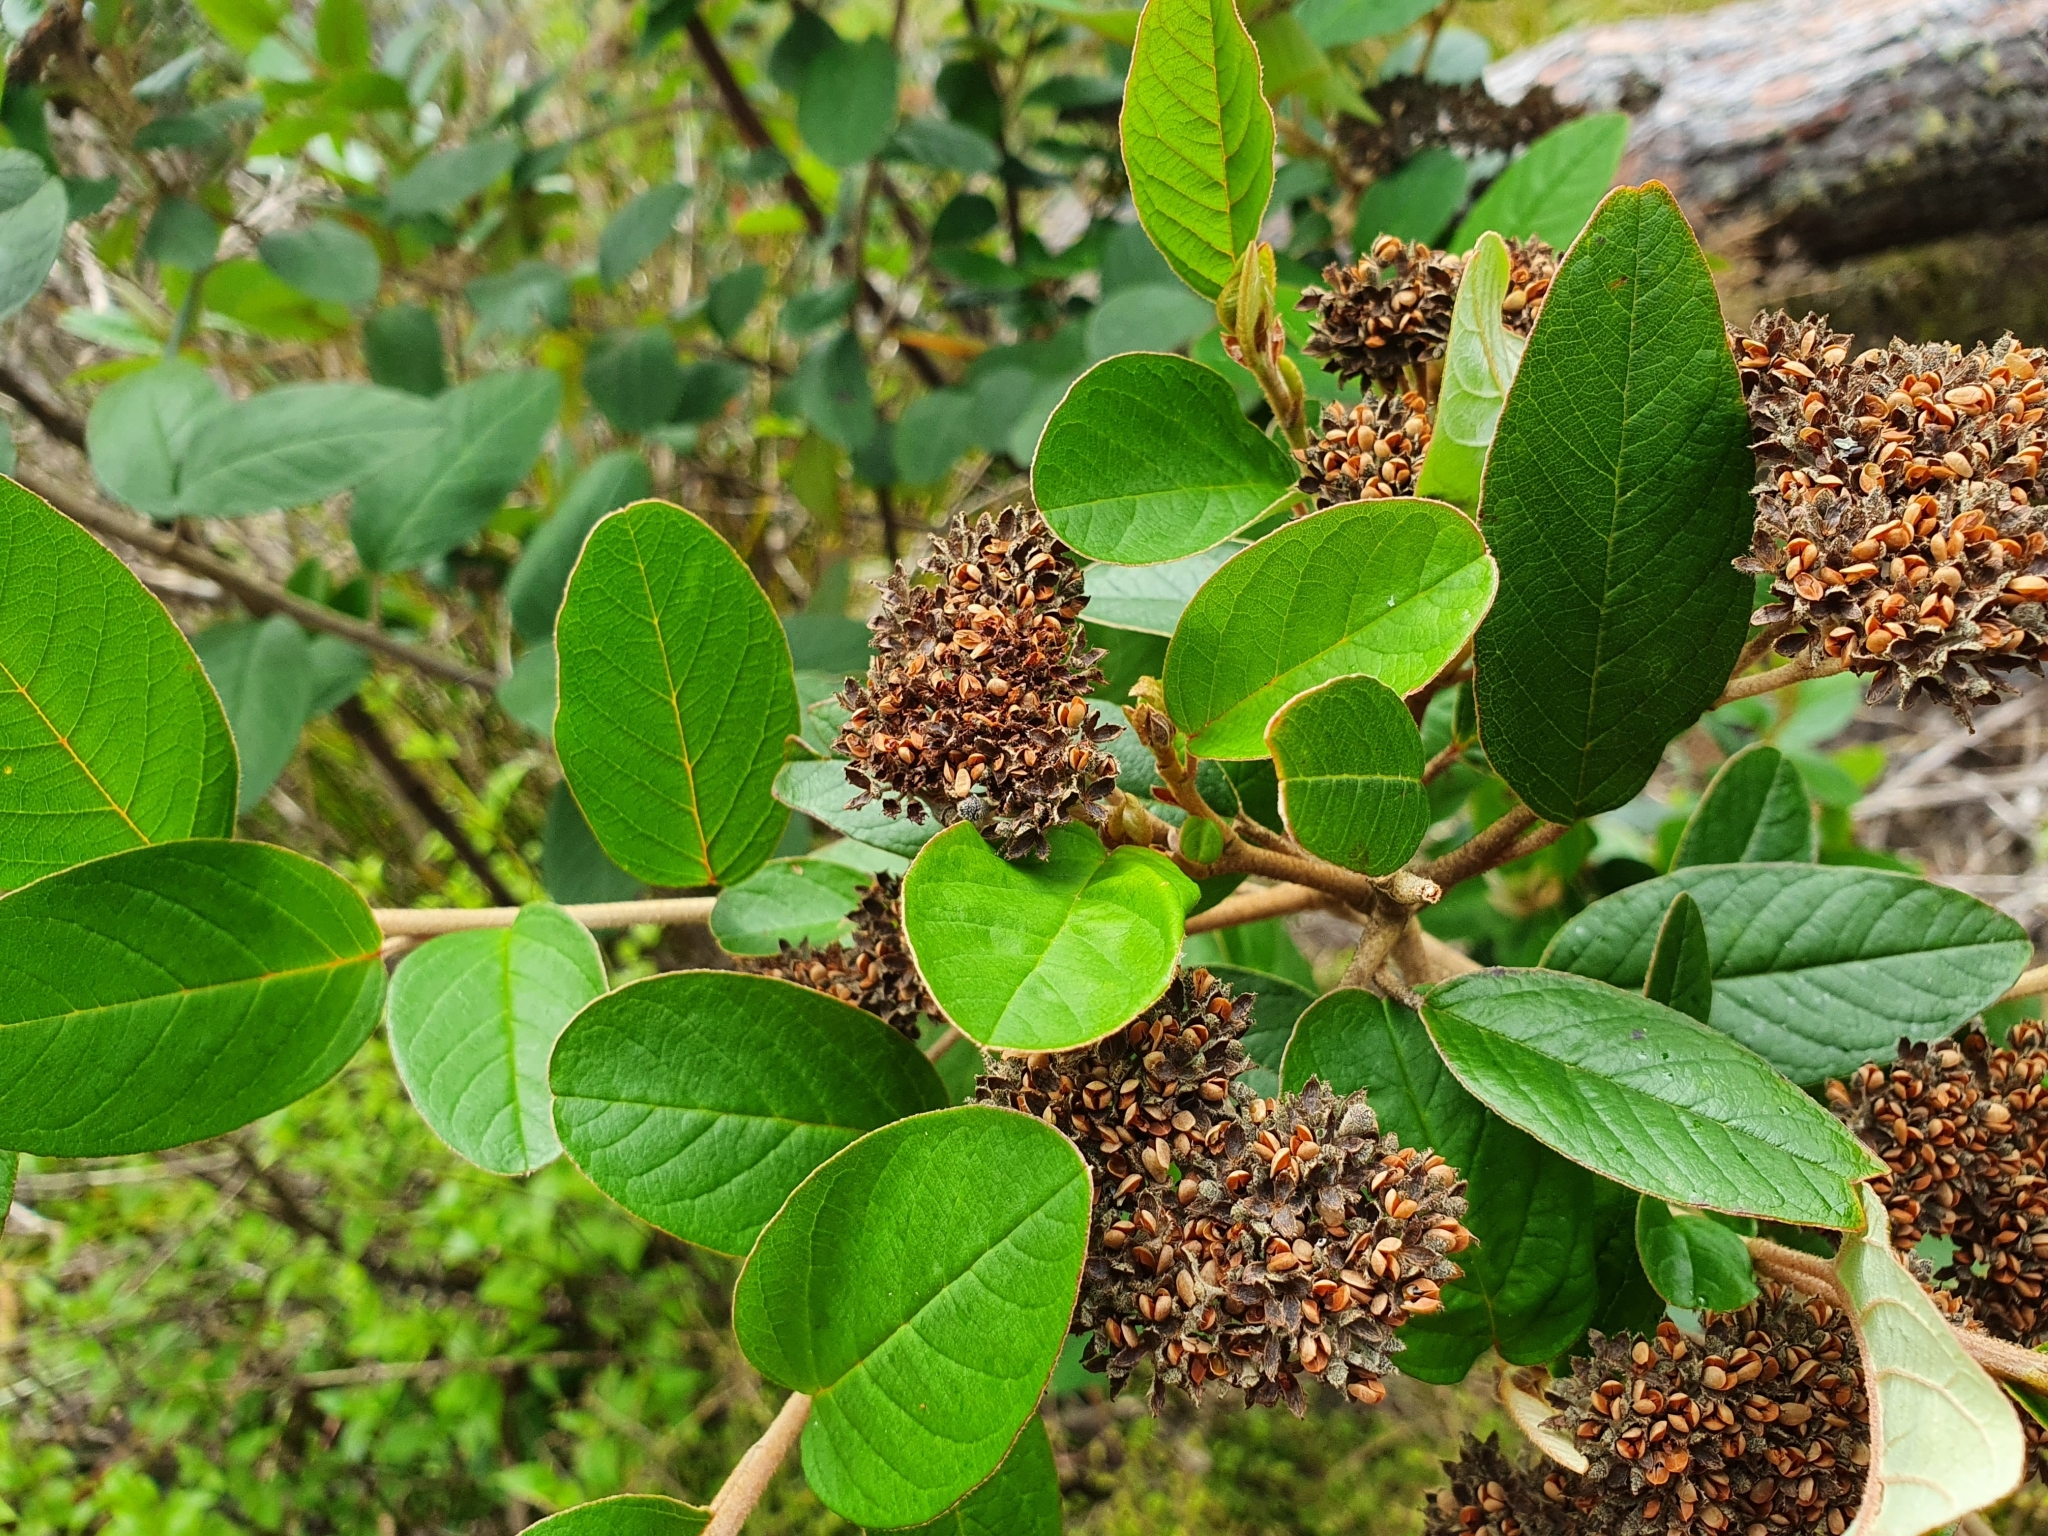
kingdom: Plantae
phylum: Tracheophyta
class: Magnoliopsida
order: Rosales
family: Rhamnaceae
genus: Pomaderris
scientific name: Pomaderris kumeraho
